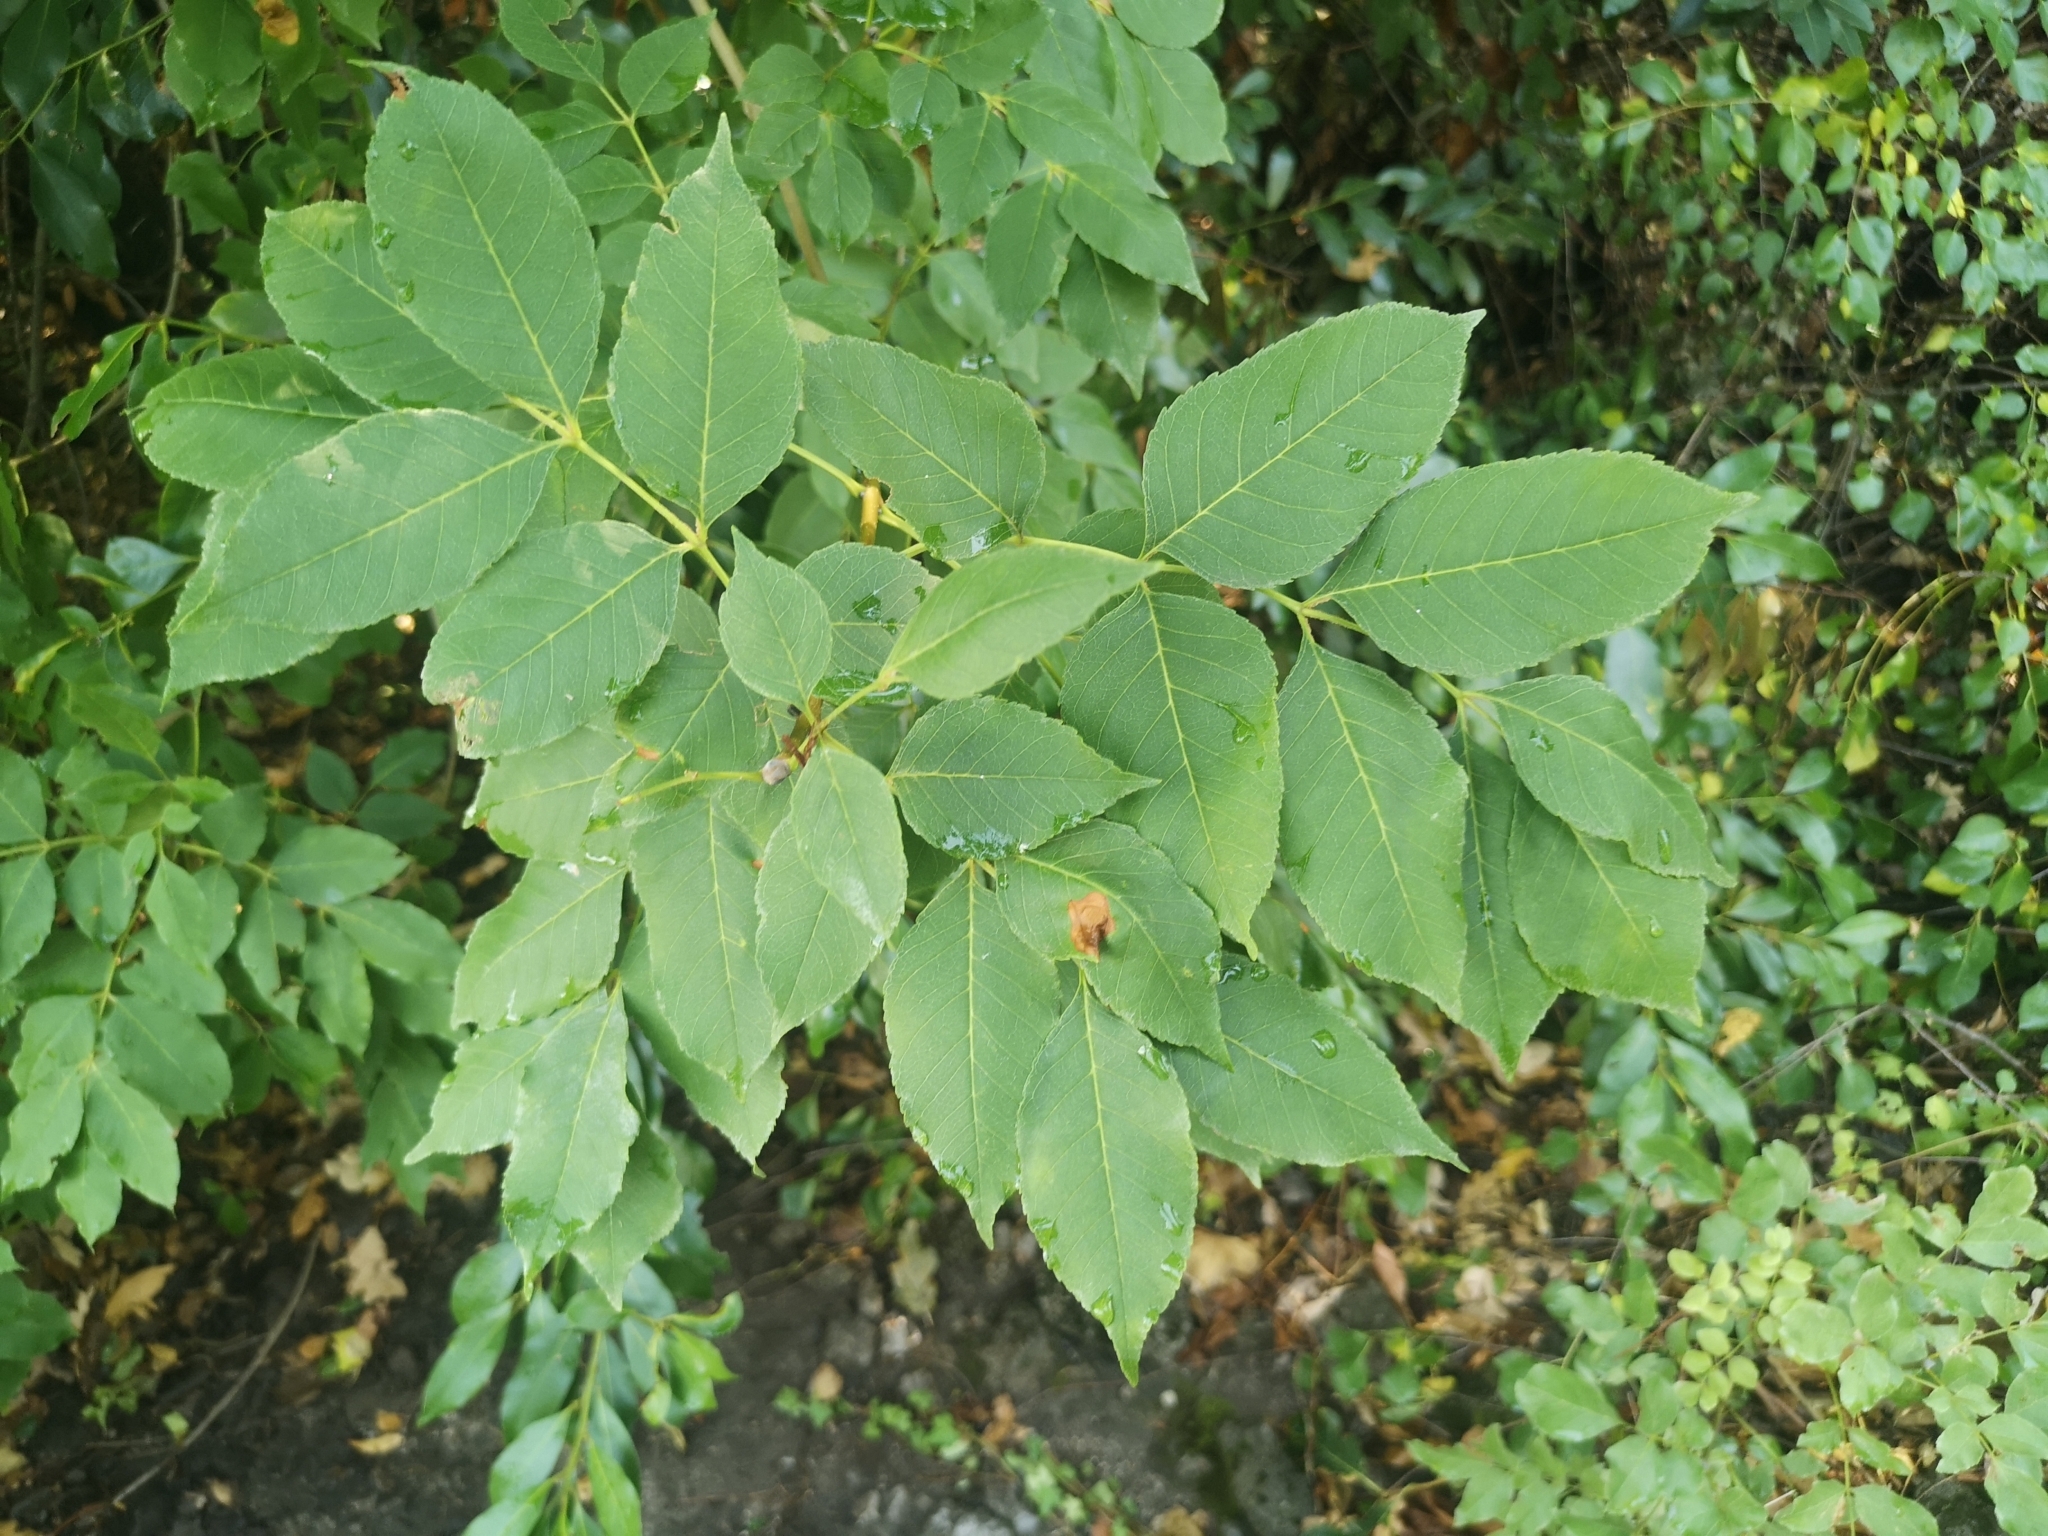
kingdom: Plantae
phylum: Tracheophyta
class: Magnoliopsida
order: Lamiales
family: Oleaceae
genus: Fraxinus
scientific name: Fraxinus ornus
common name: Manna ash
